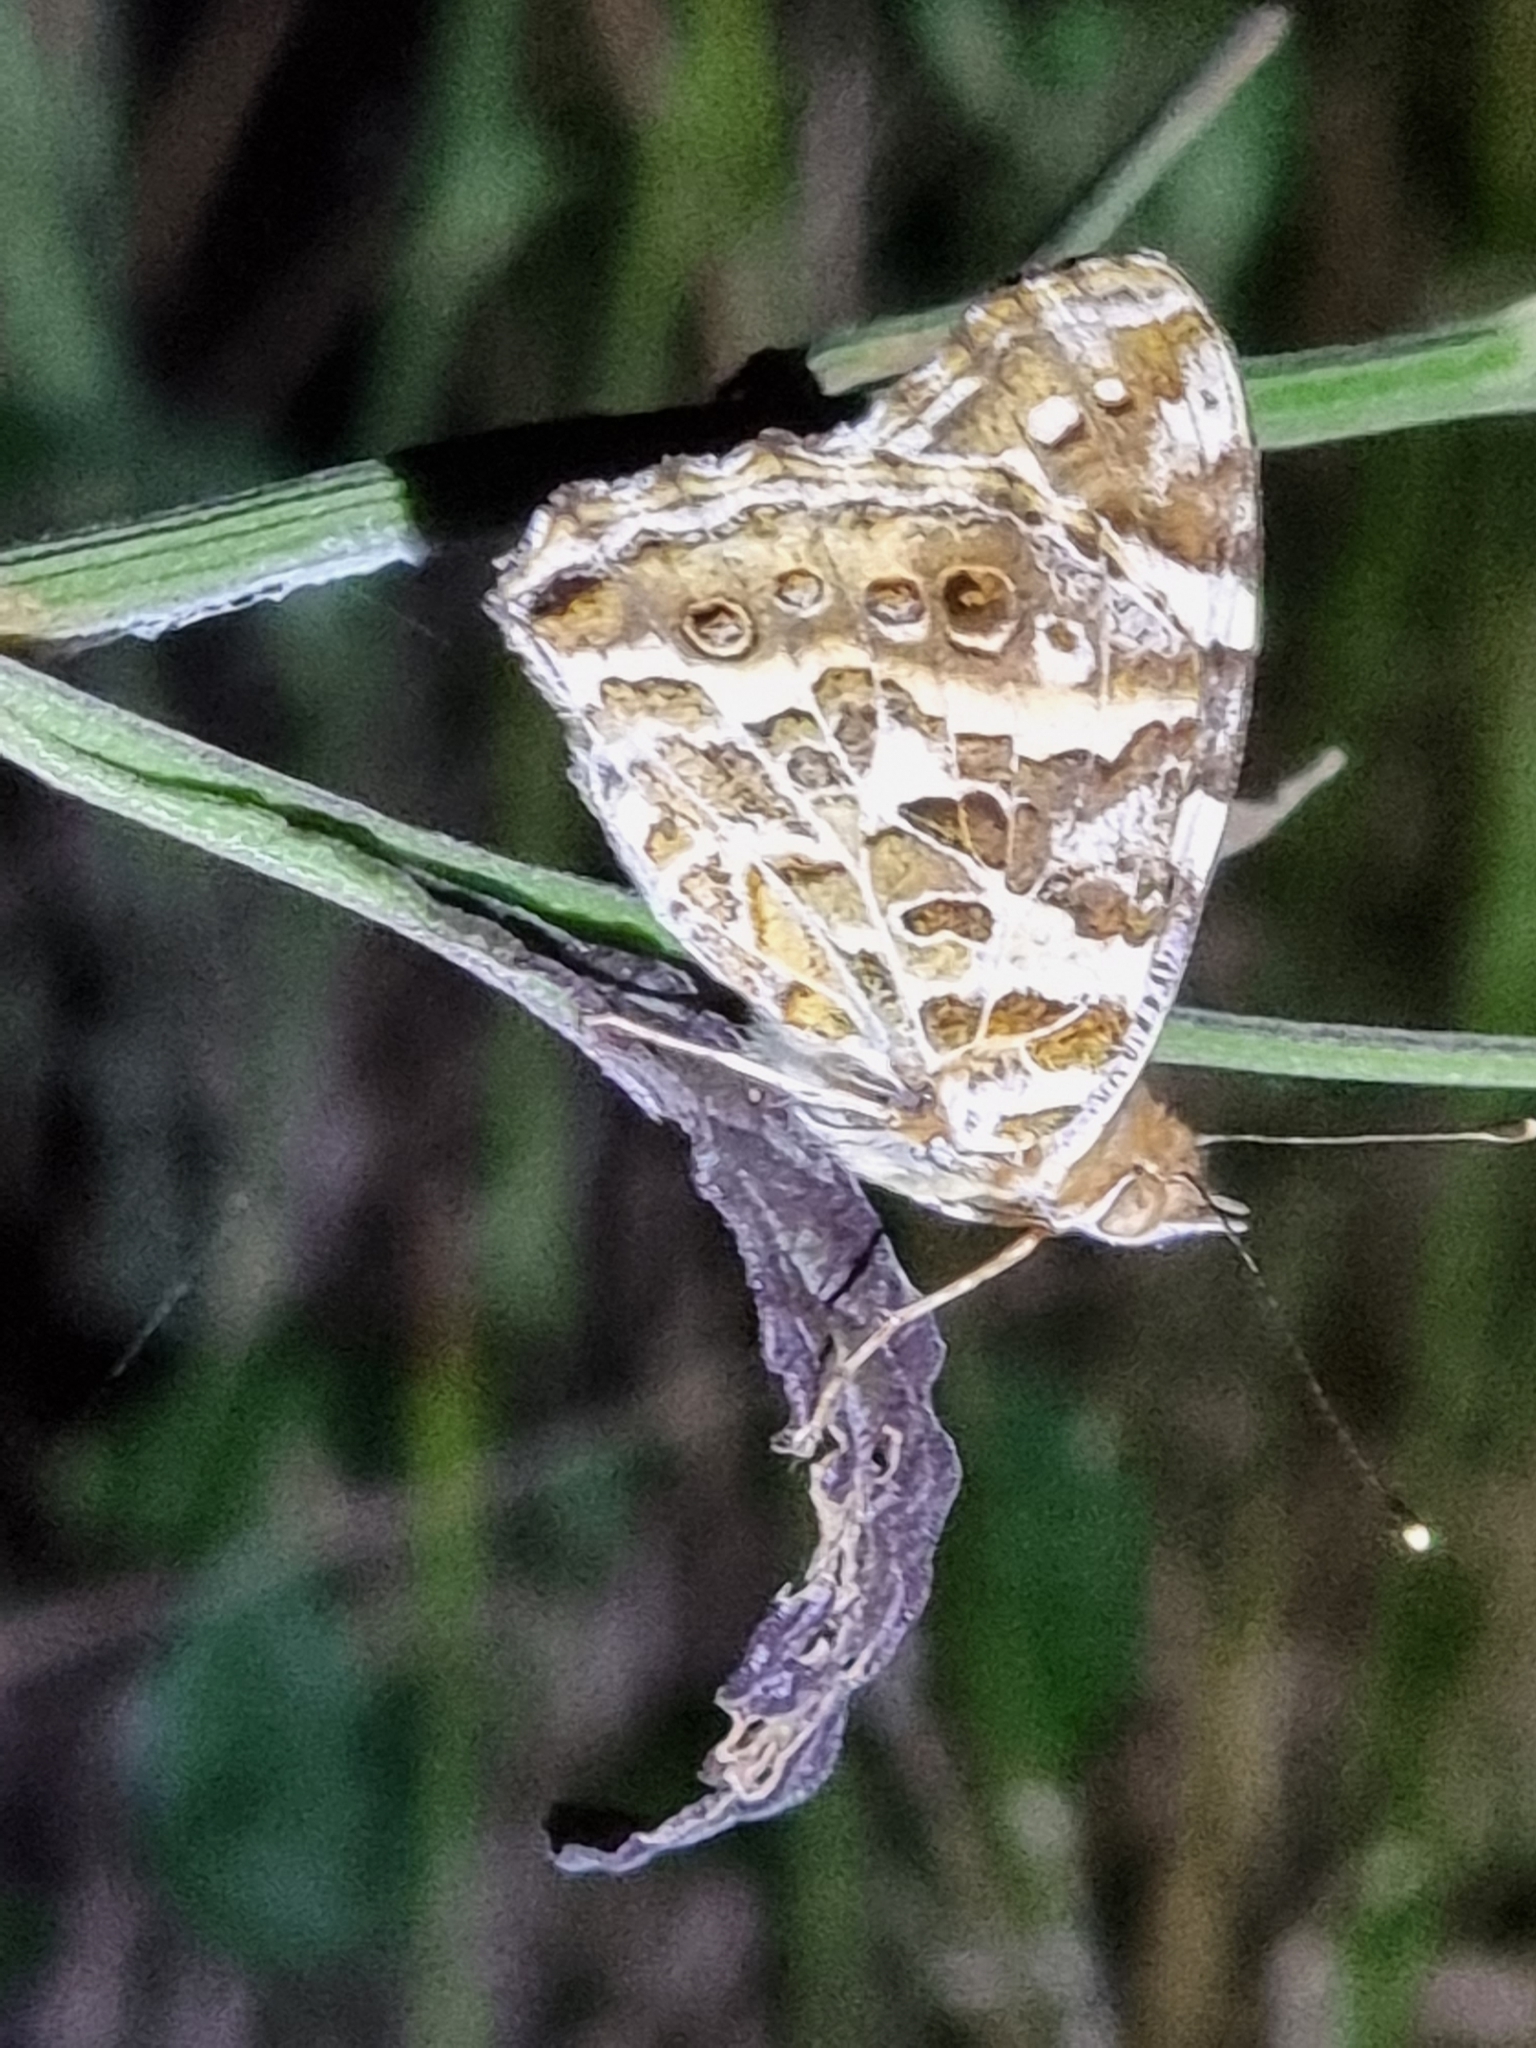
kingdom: Animalia
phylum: Arthropoda
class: Insecta
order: Lepidoptera
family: Nymphalidae
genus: Vanessa
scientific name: Vanessa kershawi
